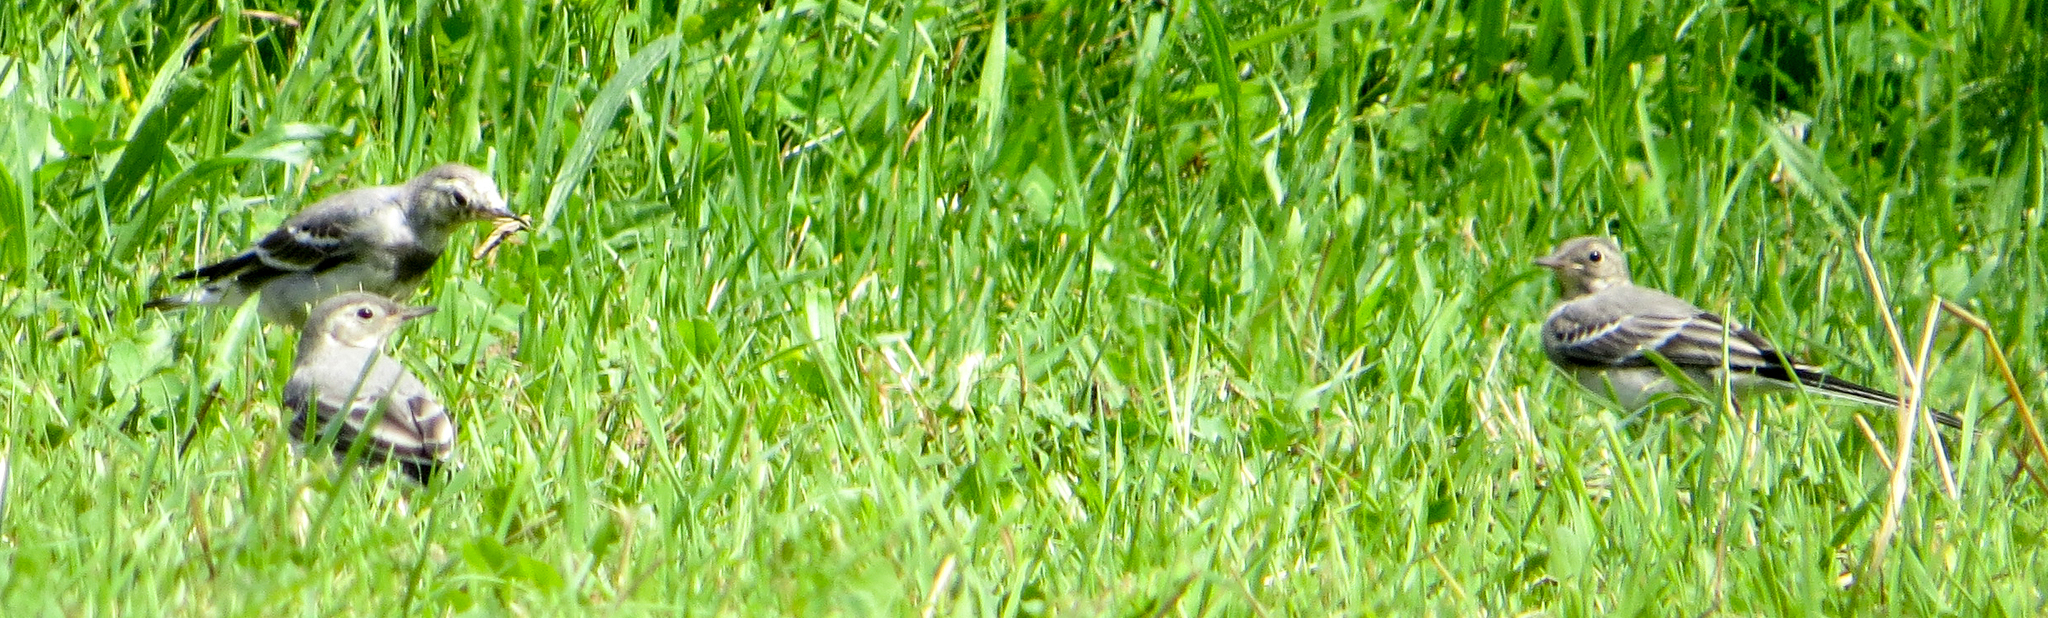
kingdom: Animalia
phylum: Chordata
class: Aves
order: Passeriformes
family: Motacillidae
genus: Motacilla
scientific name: Motacilla alba
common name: White wagtail
